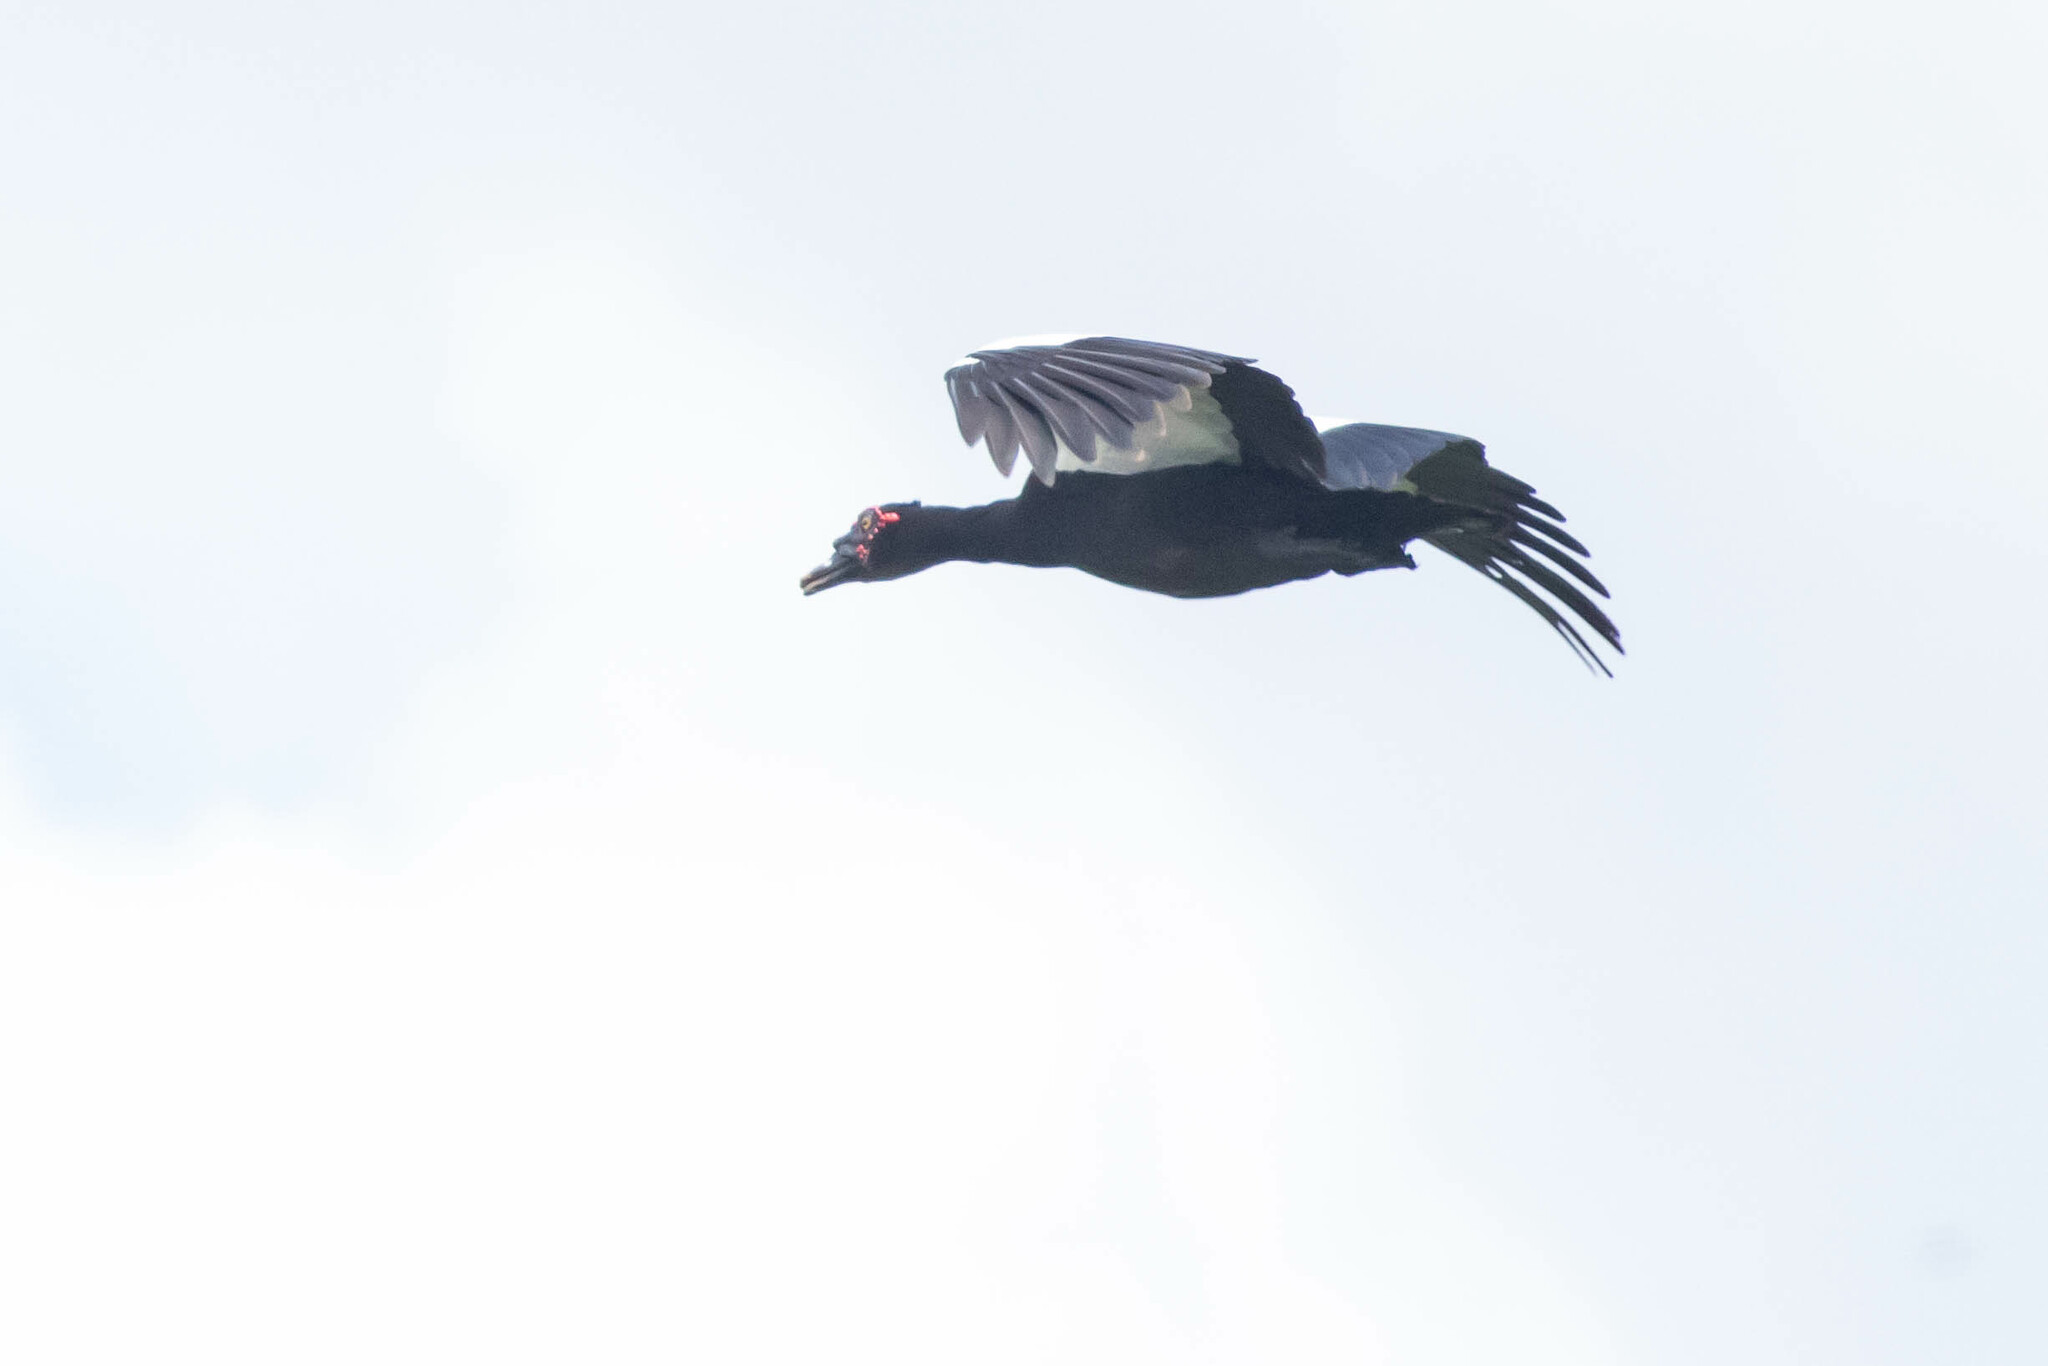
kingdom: Animalia
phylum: Chordata
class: Aves
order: Anseriformes
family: Anatidae
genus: Cairina
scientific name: Cairina moschata
